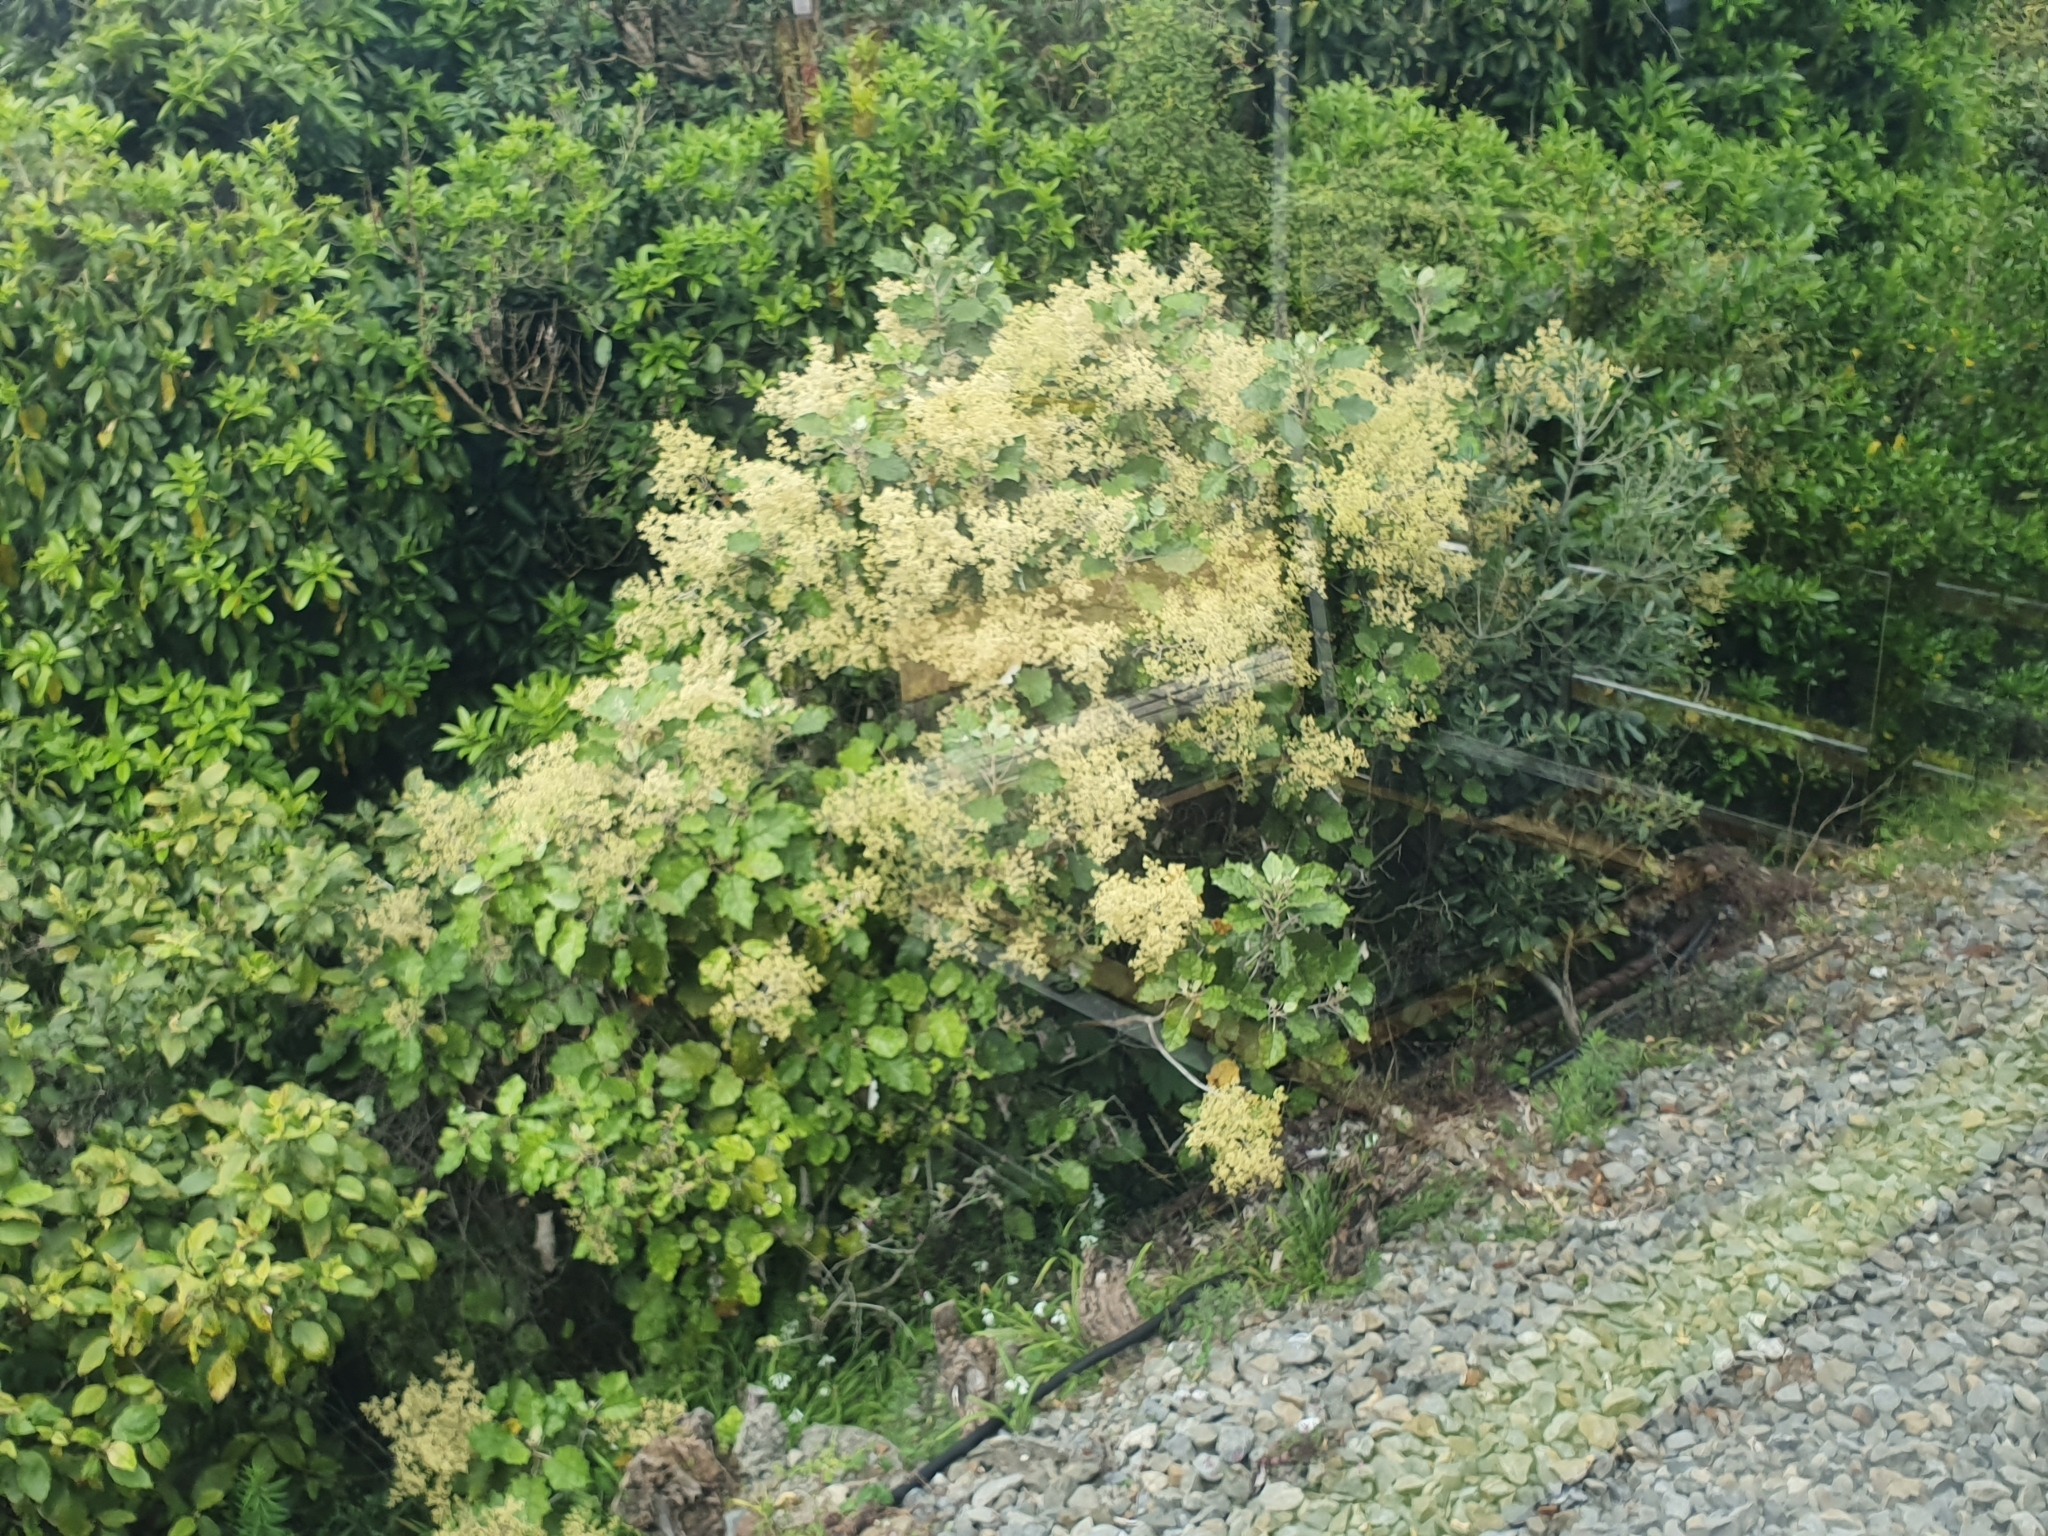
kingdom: Plantae
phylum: Tracheophyta
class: Magnoliopsida
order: Asterales
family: Asteraceae
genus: Brachyglottis
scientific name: Brachyglottis repanda
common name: Hedge ragwort
